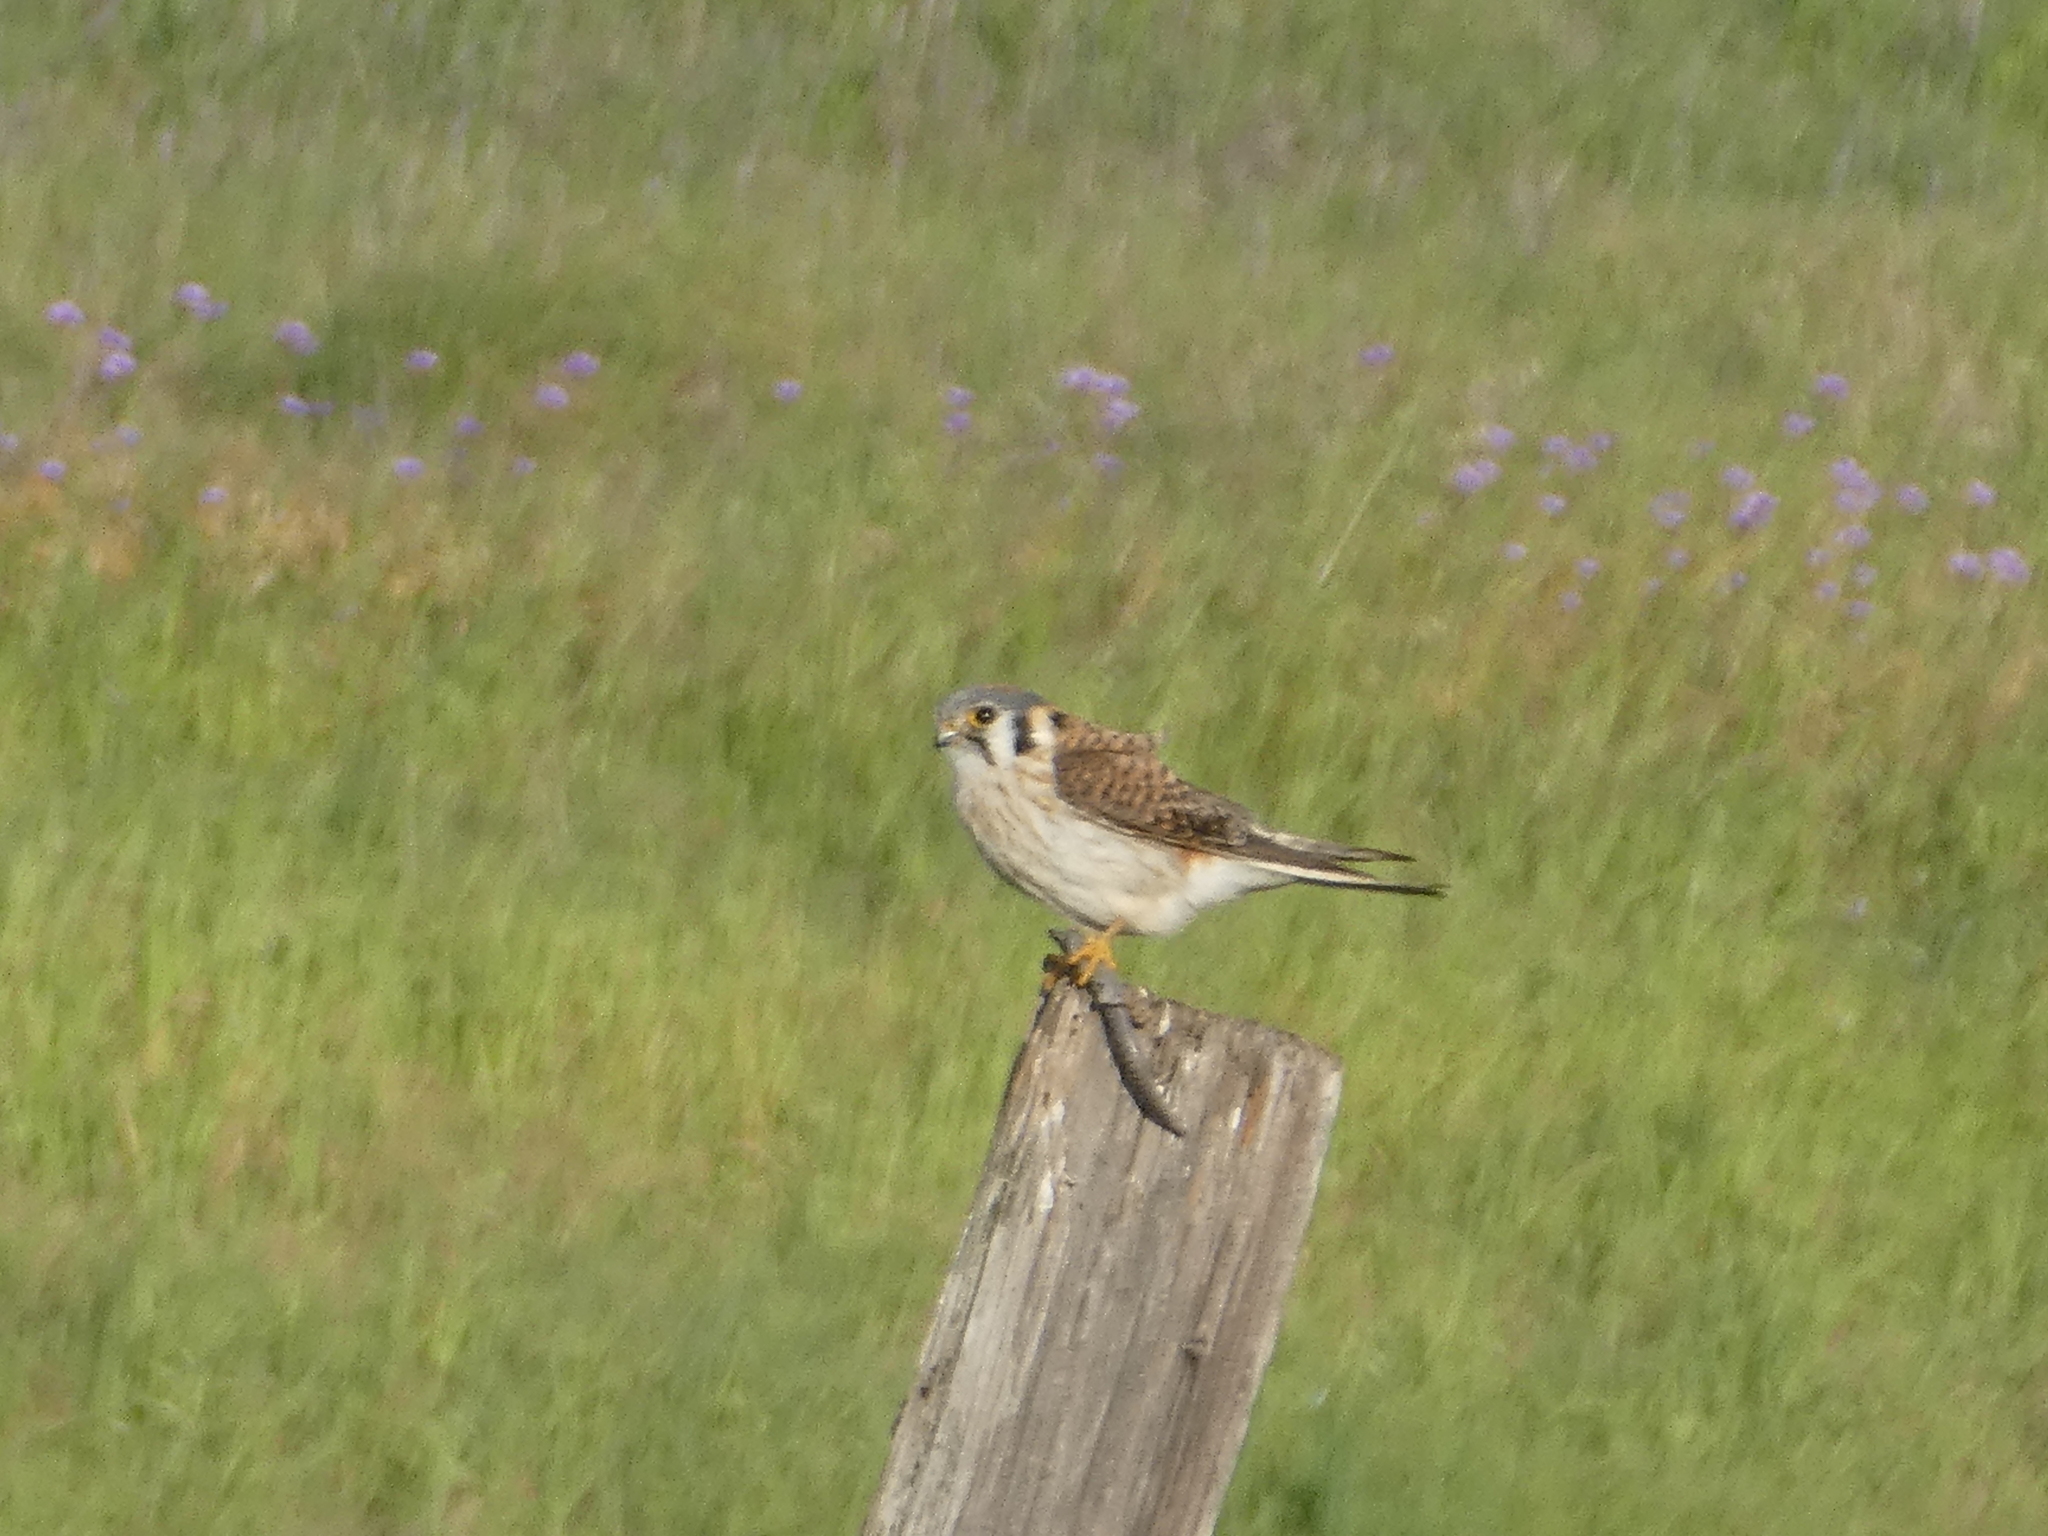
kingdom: Animalia
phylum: Chordata
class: Aves
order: Falconiformes
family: Falconidae
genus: Falco
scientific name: Falco sparverius
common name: American kestrel
